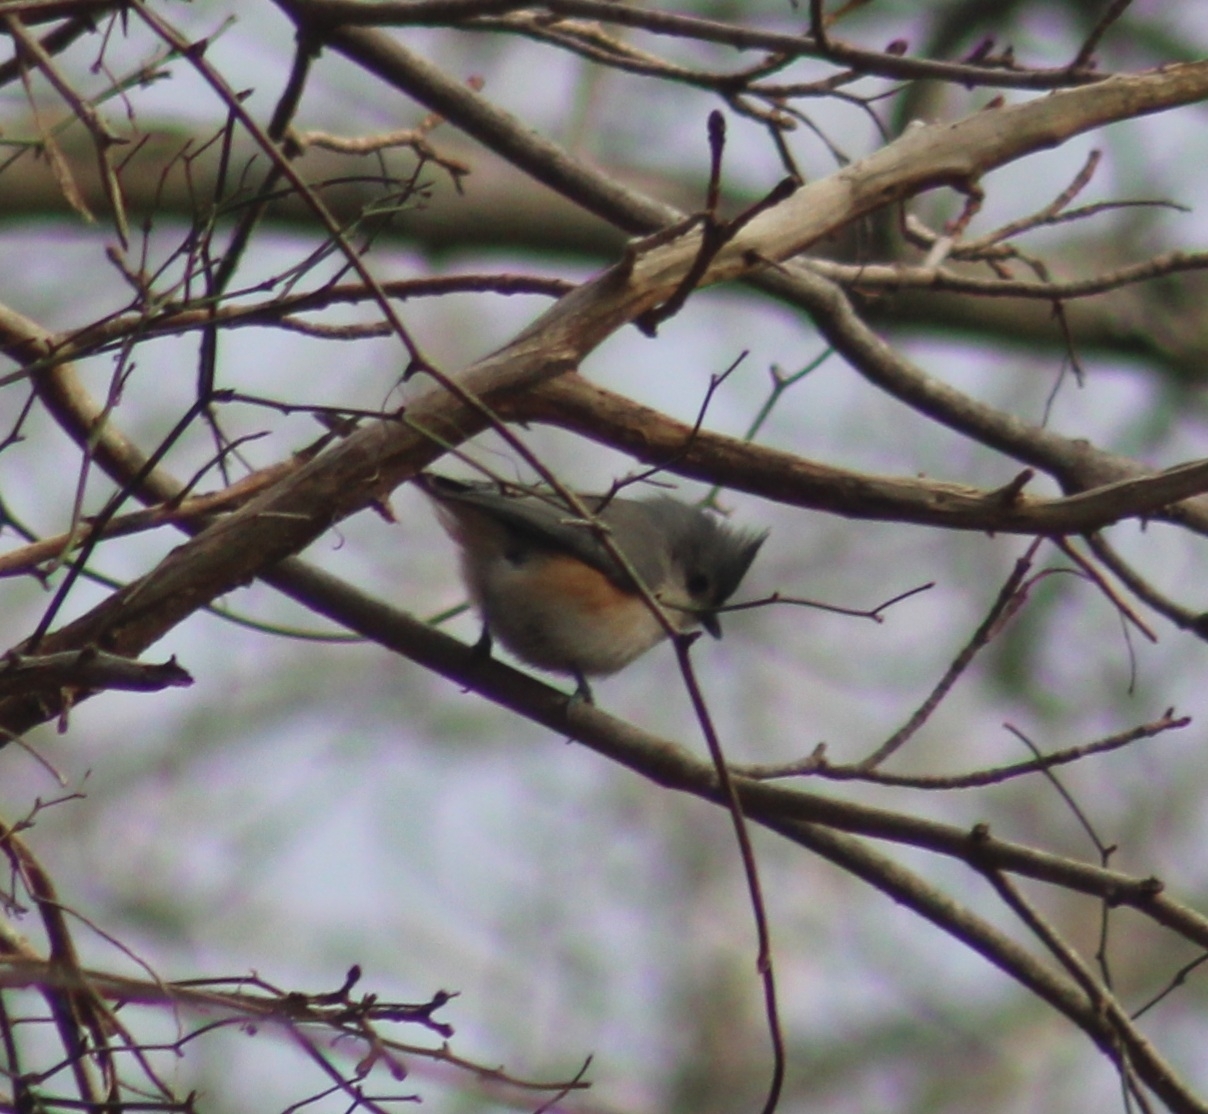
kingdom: Animalia
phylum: Chordata
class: Aves
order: Passeriformes
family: Paridae
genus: Baeolophus
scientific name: Baeolophus bicolor
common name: Tufted titmouse
